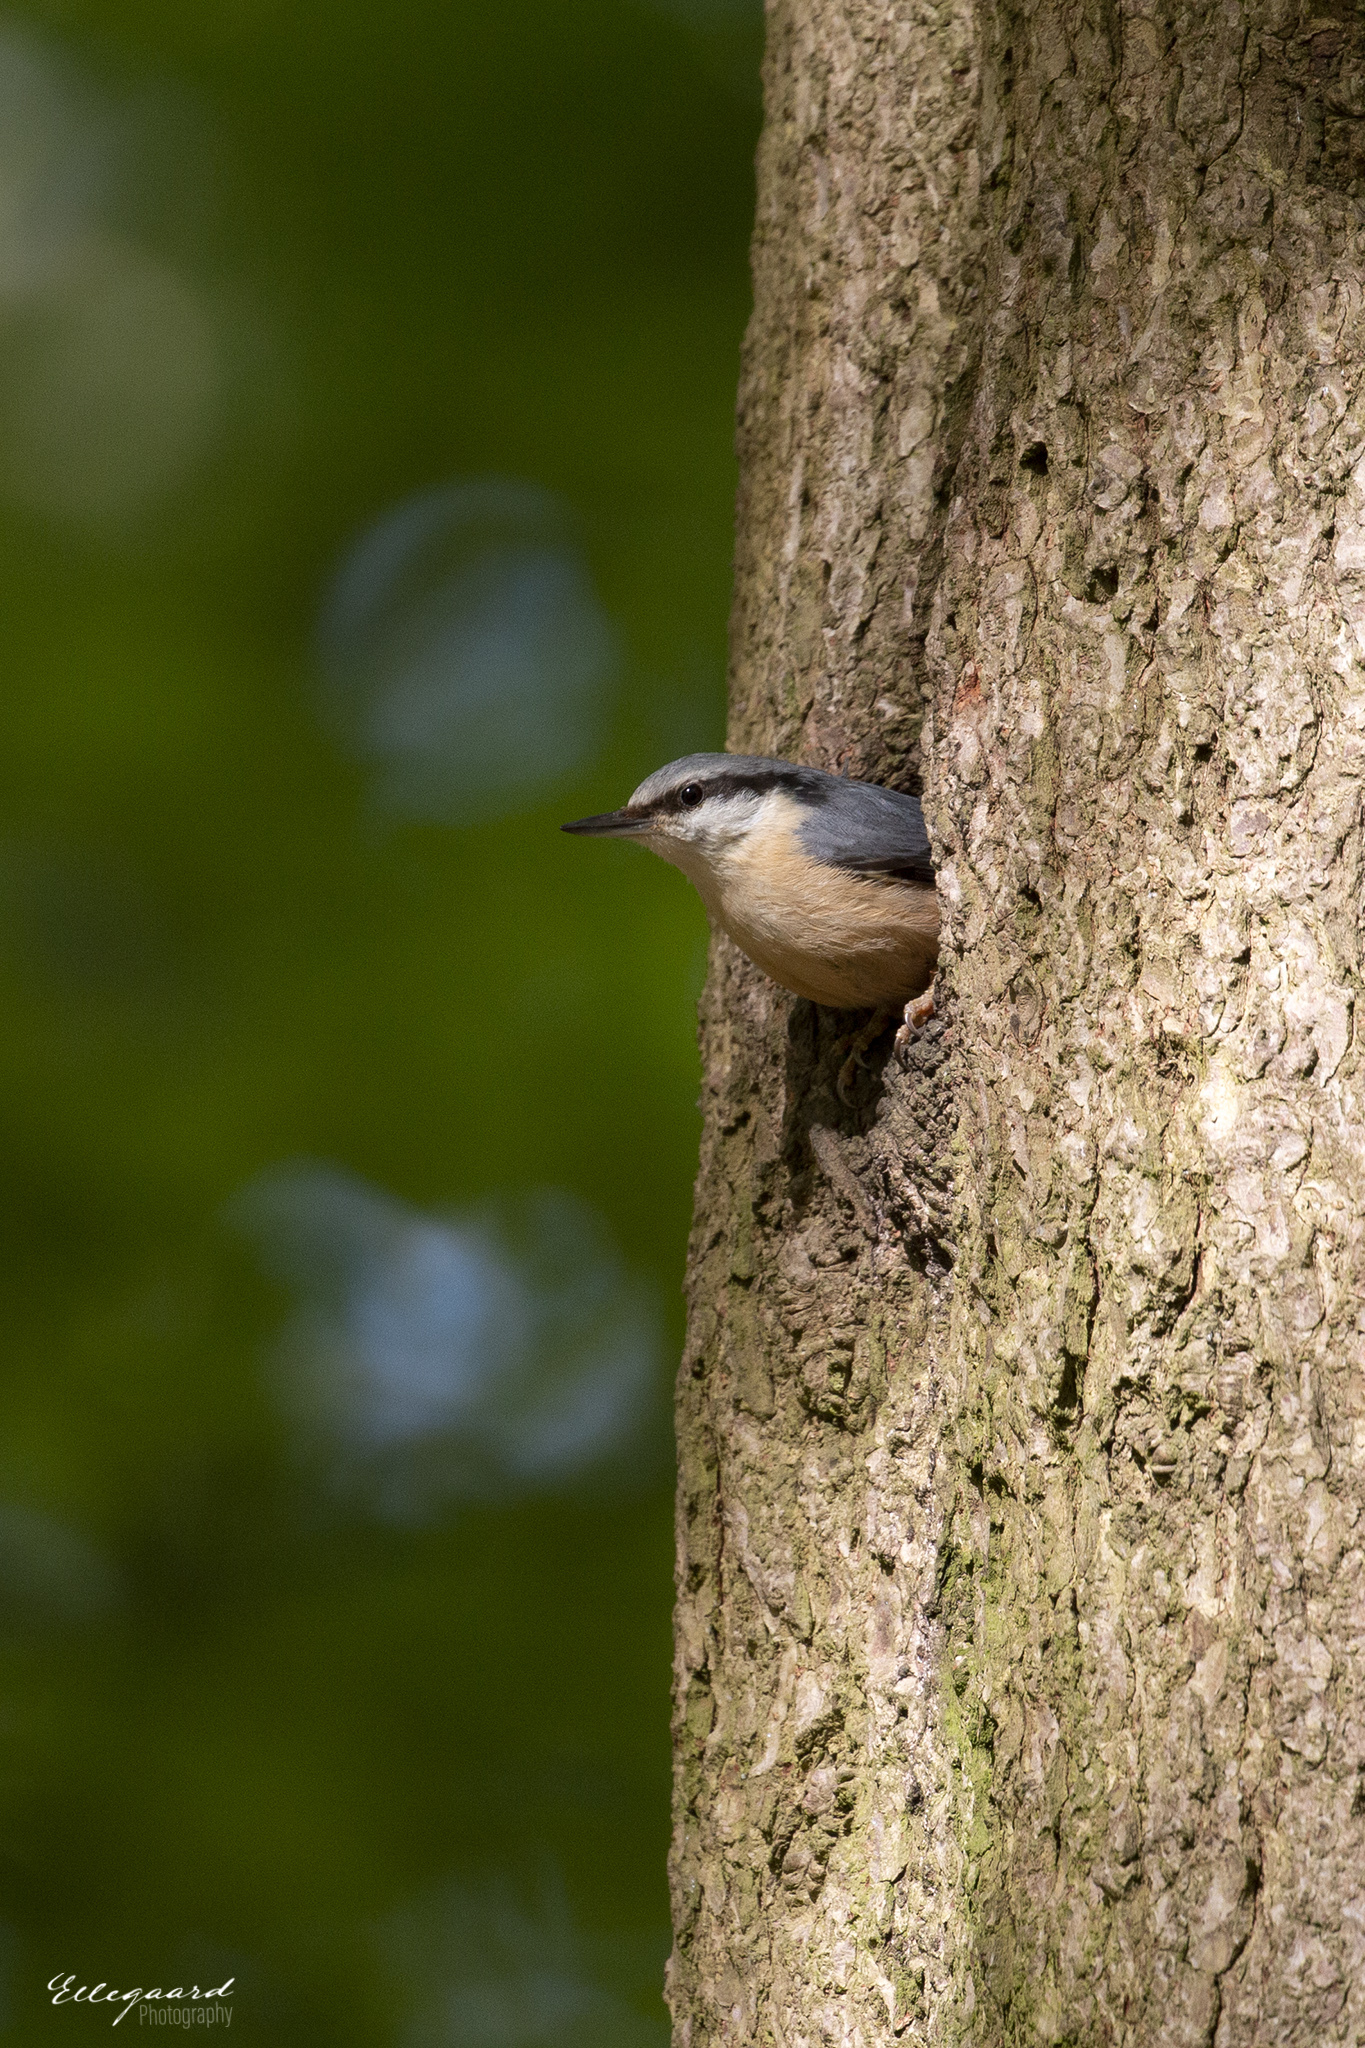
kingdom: Animalia
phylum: Chordata
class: Aves
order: Passeriformes
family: Sittidae
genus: Sitta
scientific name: Sitta europaea
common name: Eurasian nuthatch
